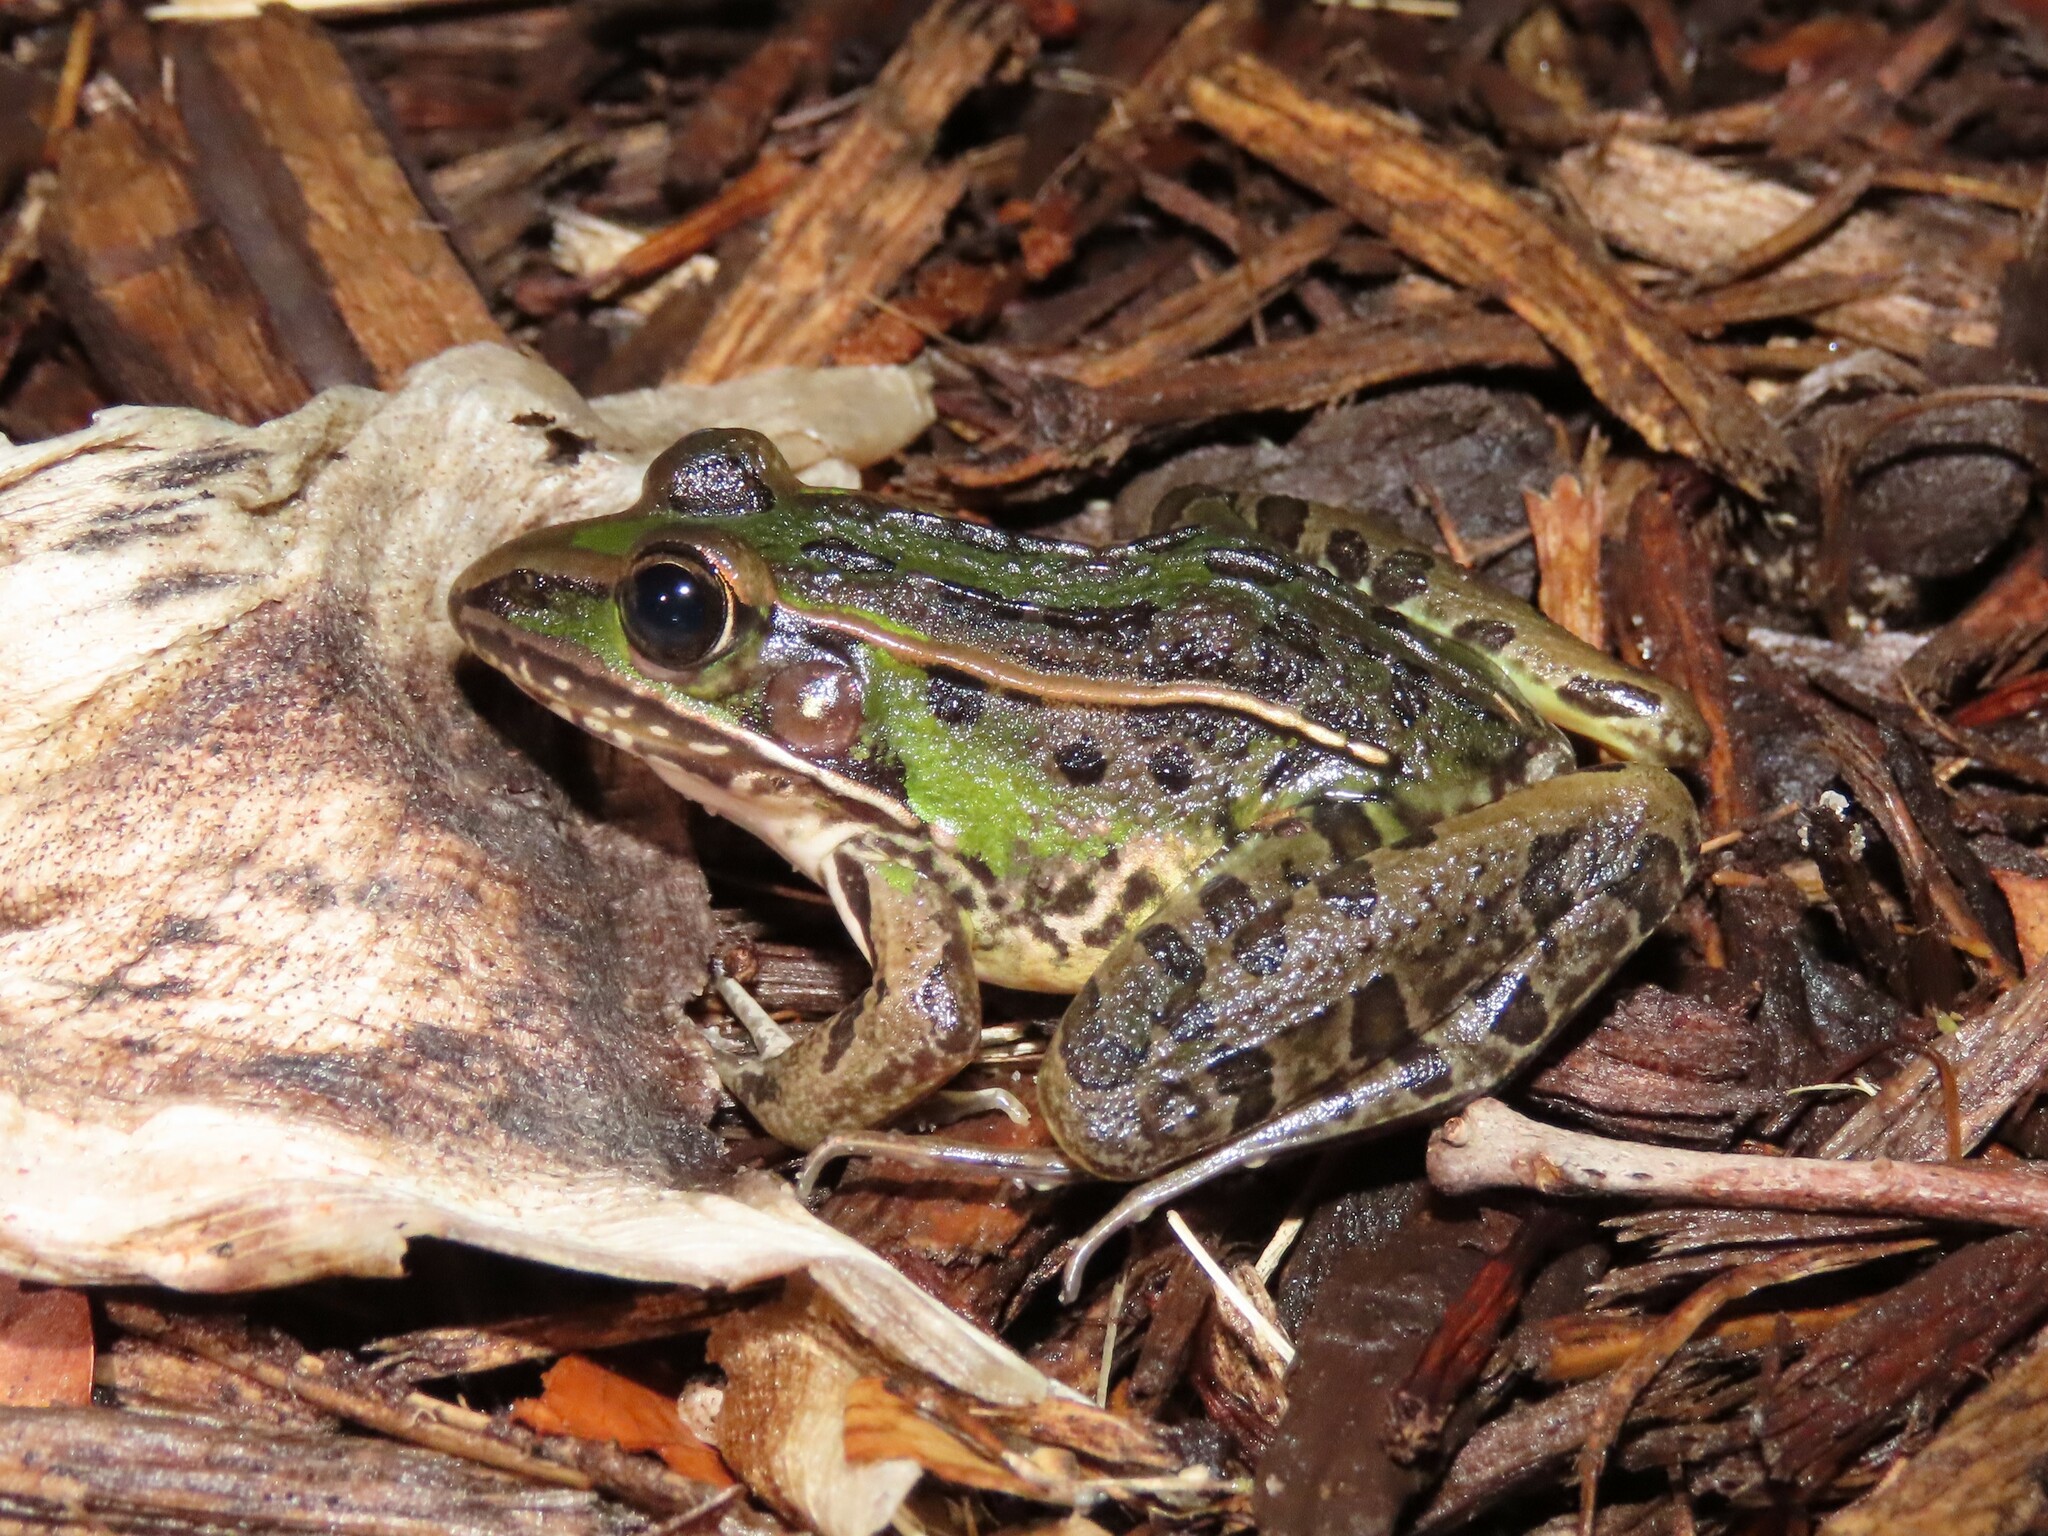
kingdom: Animalia
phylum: Chordata
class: Amphibia
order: Anura
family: Ranidae
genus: Lithobates
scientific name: Lithobates sphenocephalus
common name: Southern leopard frog
